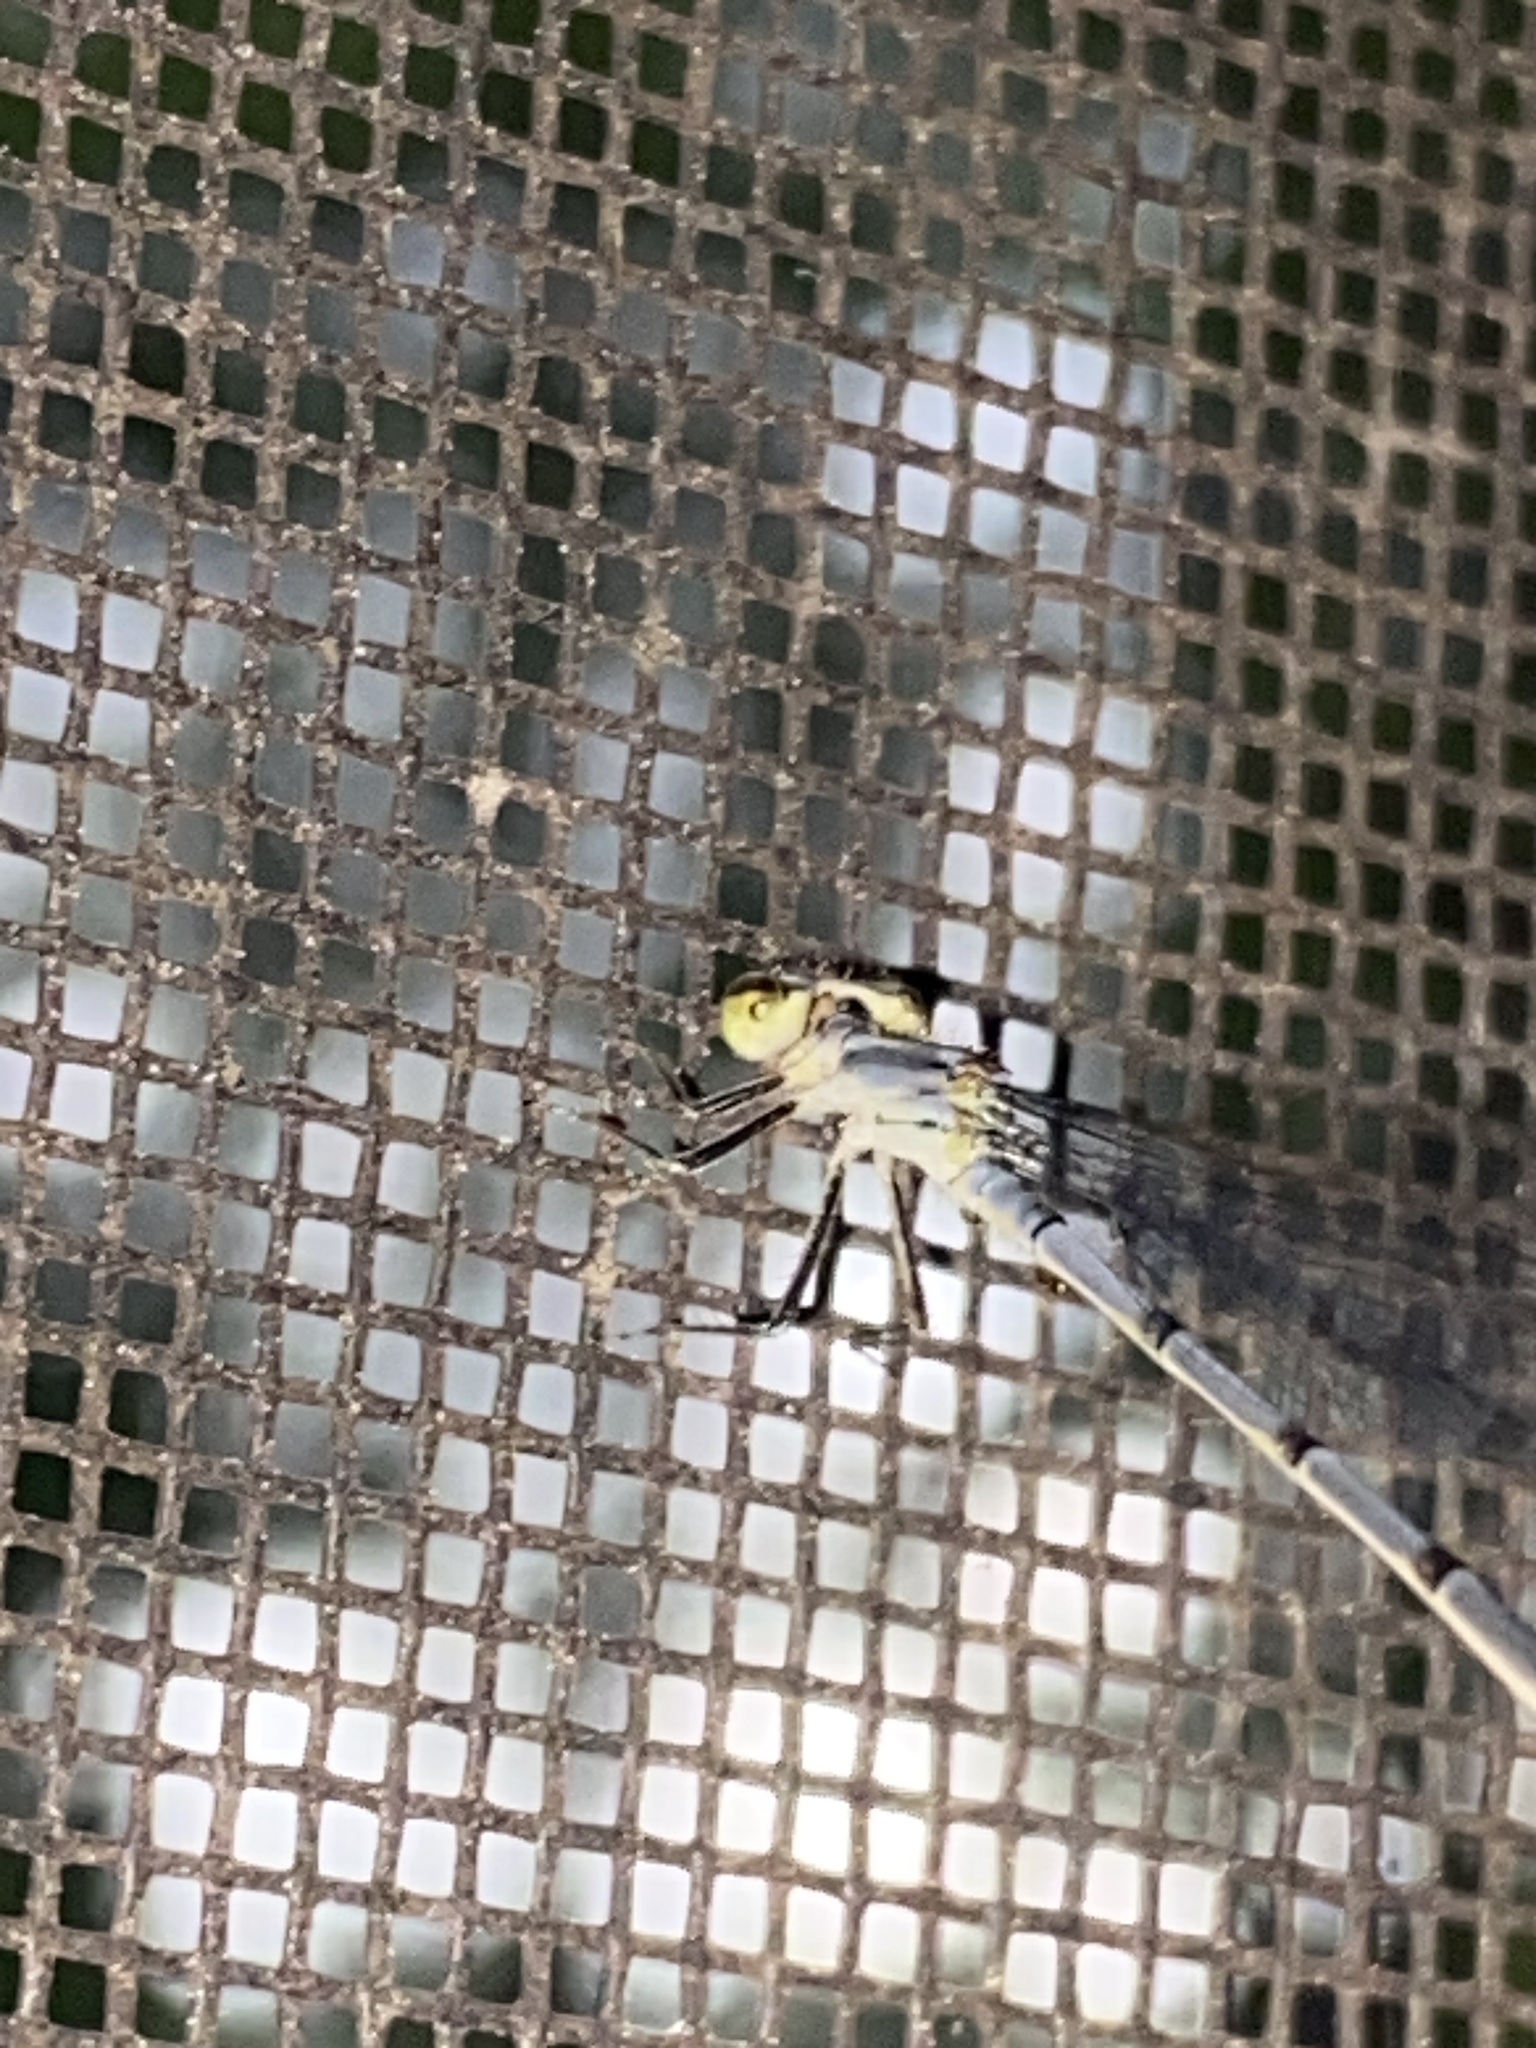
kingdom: Animalia
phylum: Arthropoda
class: Insecta
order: Odonata
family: Coenagrionidae
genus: Ischnura
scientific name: Ischnura posita
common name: Fragile forktail
